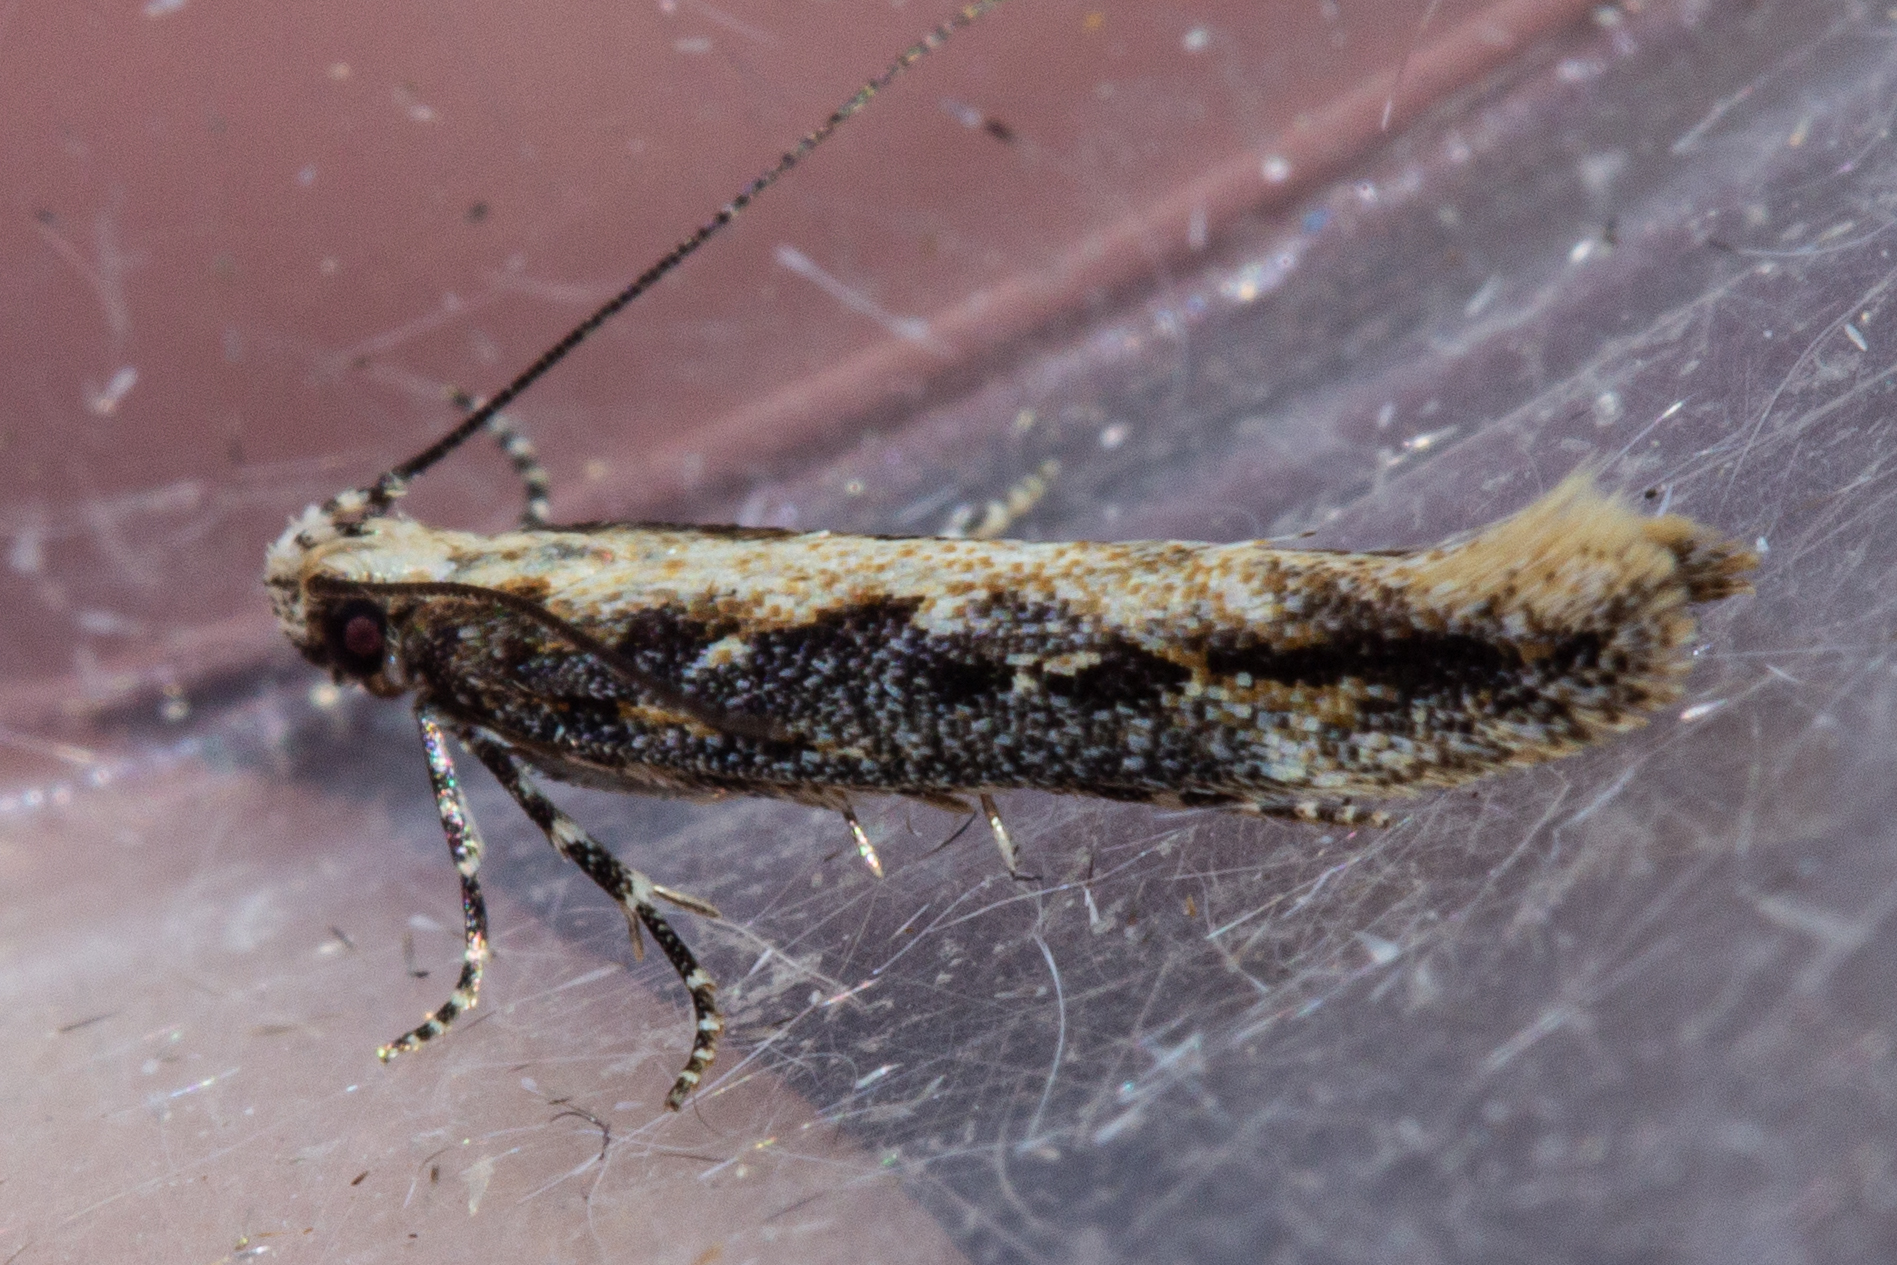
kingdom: Animalia
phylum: Arthropoda
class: Insecta
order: Lepidoptera
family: Gelechiidae
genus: Kiwaia
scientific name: Kiwaia brontophora
